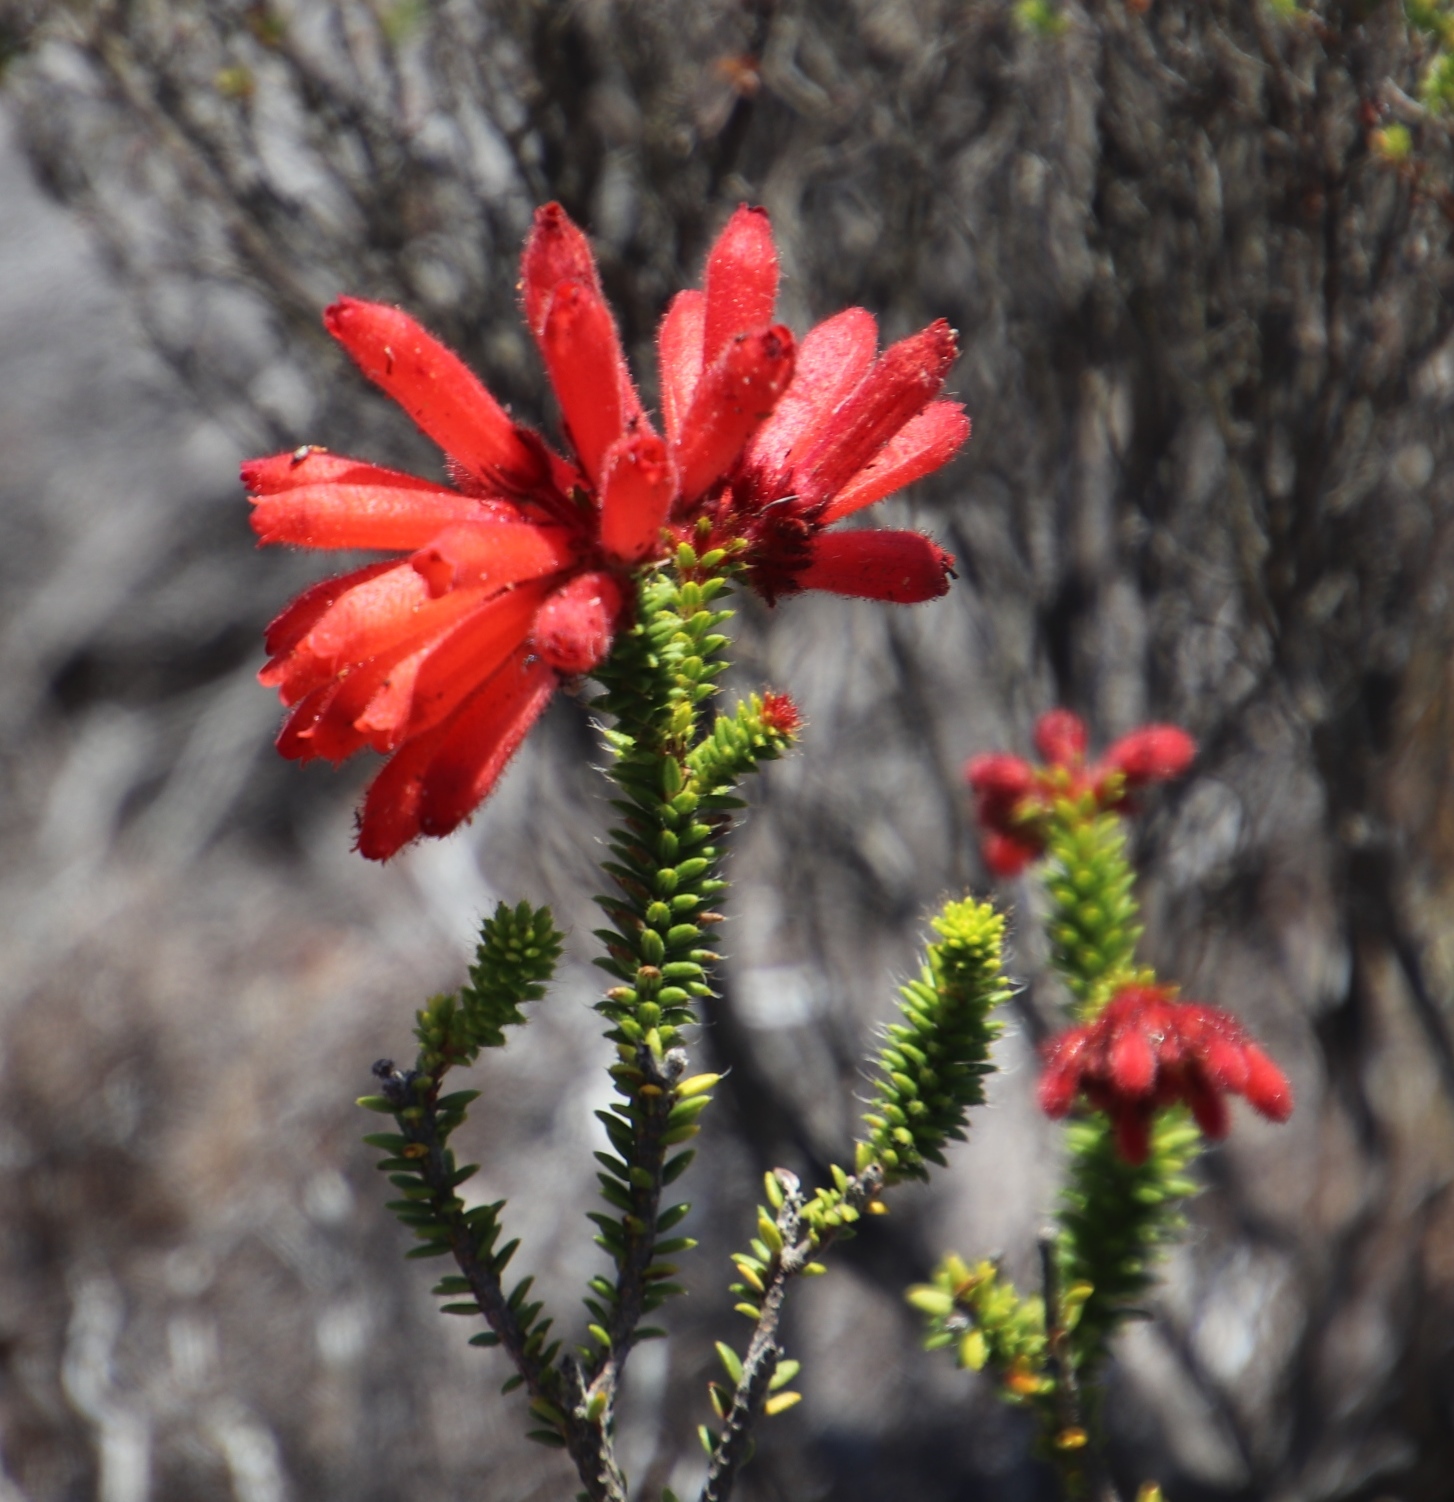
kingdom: Plantae
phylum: Tracheophyta
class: Magnoliopsida
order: Ericales
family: Ericaceae
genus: Erica
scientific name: Erica cerinthoides
